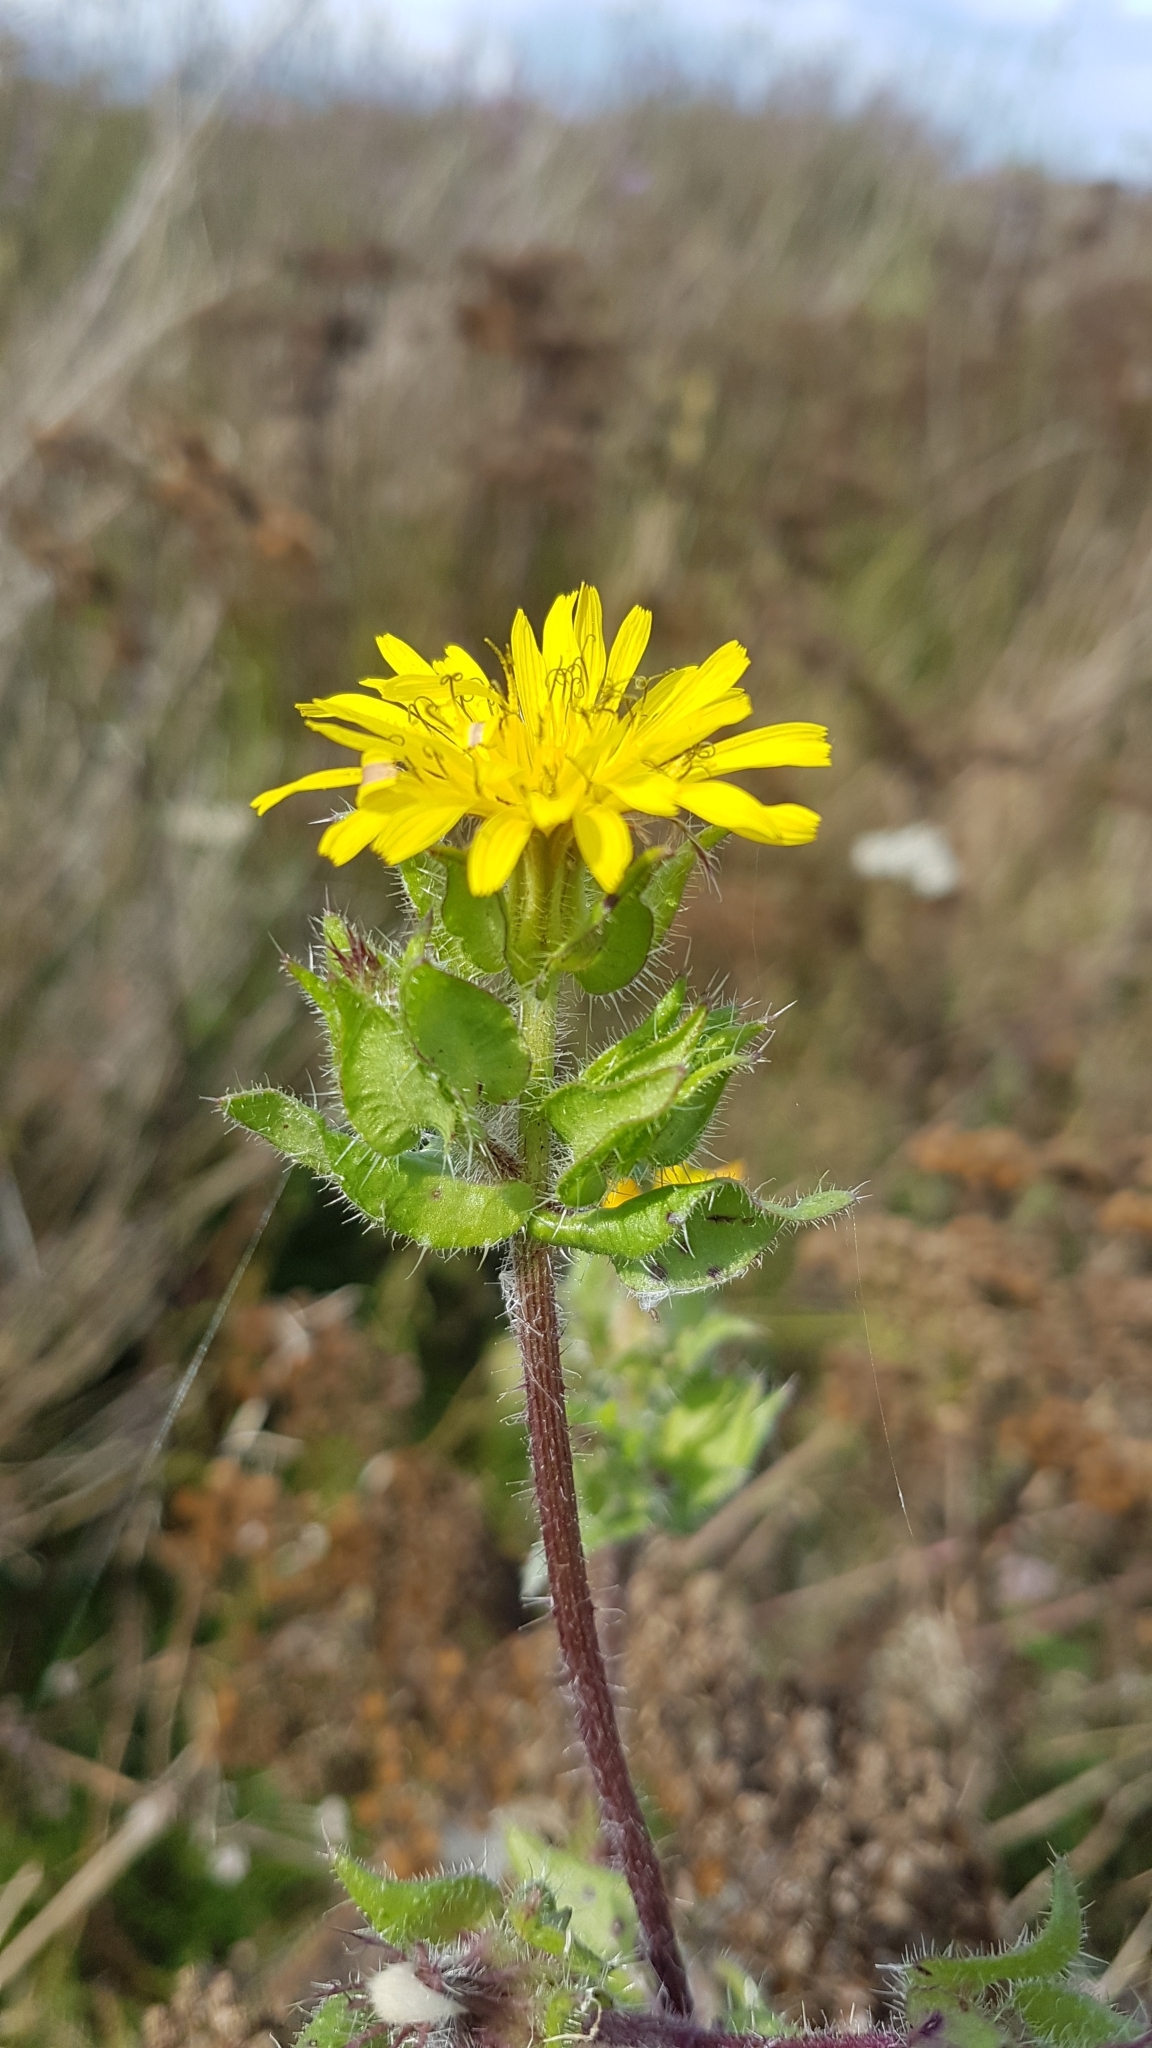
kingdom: Plantae
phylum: Tracheophyta
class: Magnoliopsida
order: Asterales
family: Asteraceae
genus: Helminthotheca
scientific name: Helminthotheca echioides
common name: Ox-tongue
